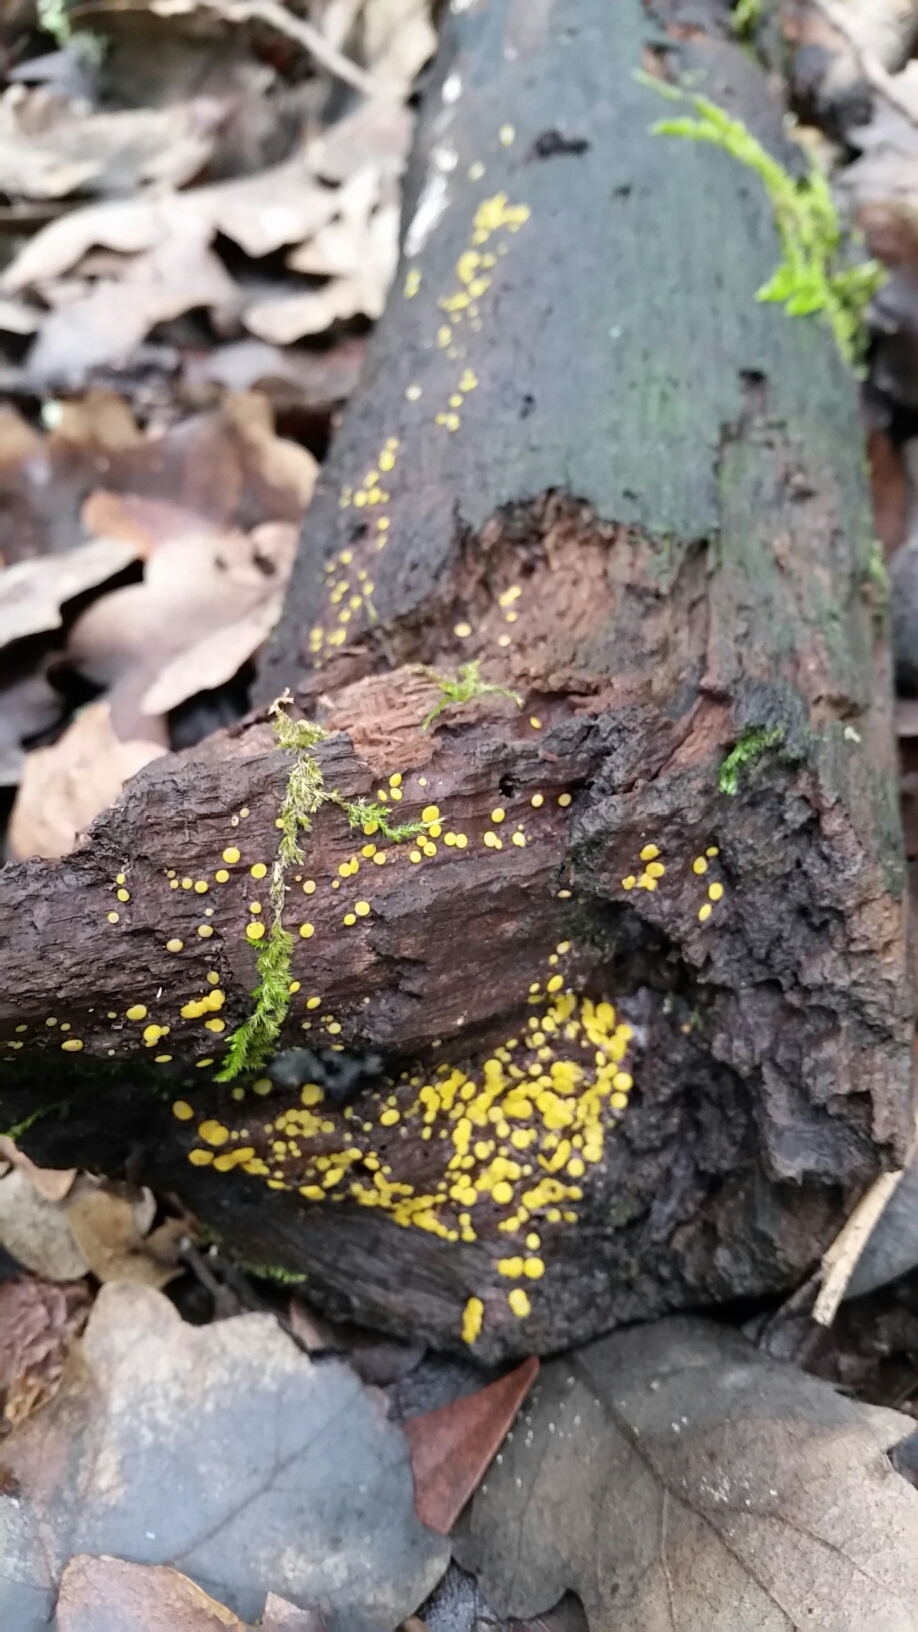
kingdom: Fungi
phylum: Ascomycota
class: Leotiomycetes
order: Helotiales
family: Pezizellaceae
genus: Calycina
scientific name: Calycina citrina
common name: Yellow fairy cups
